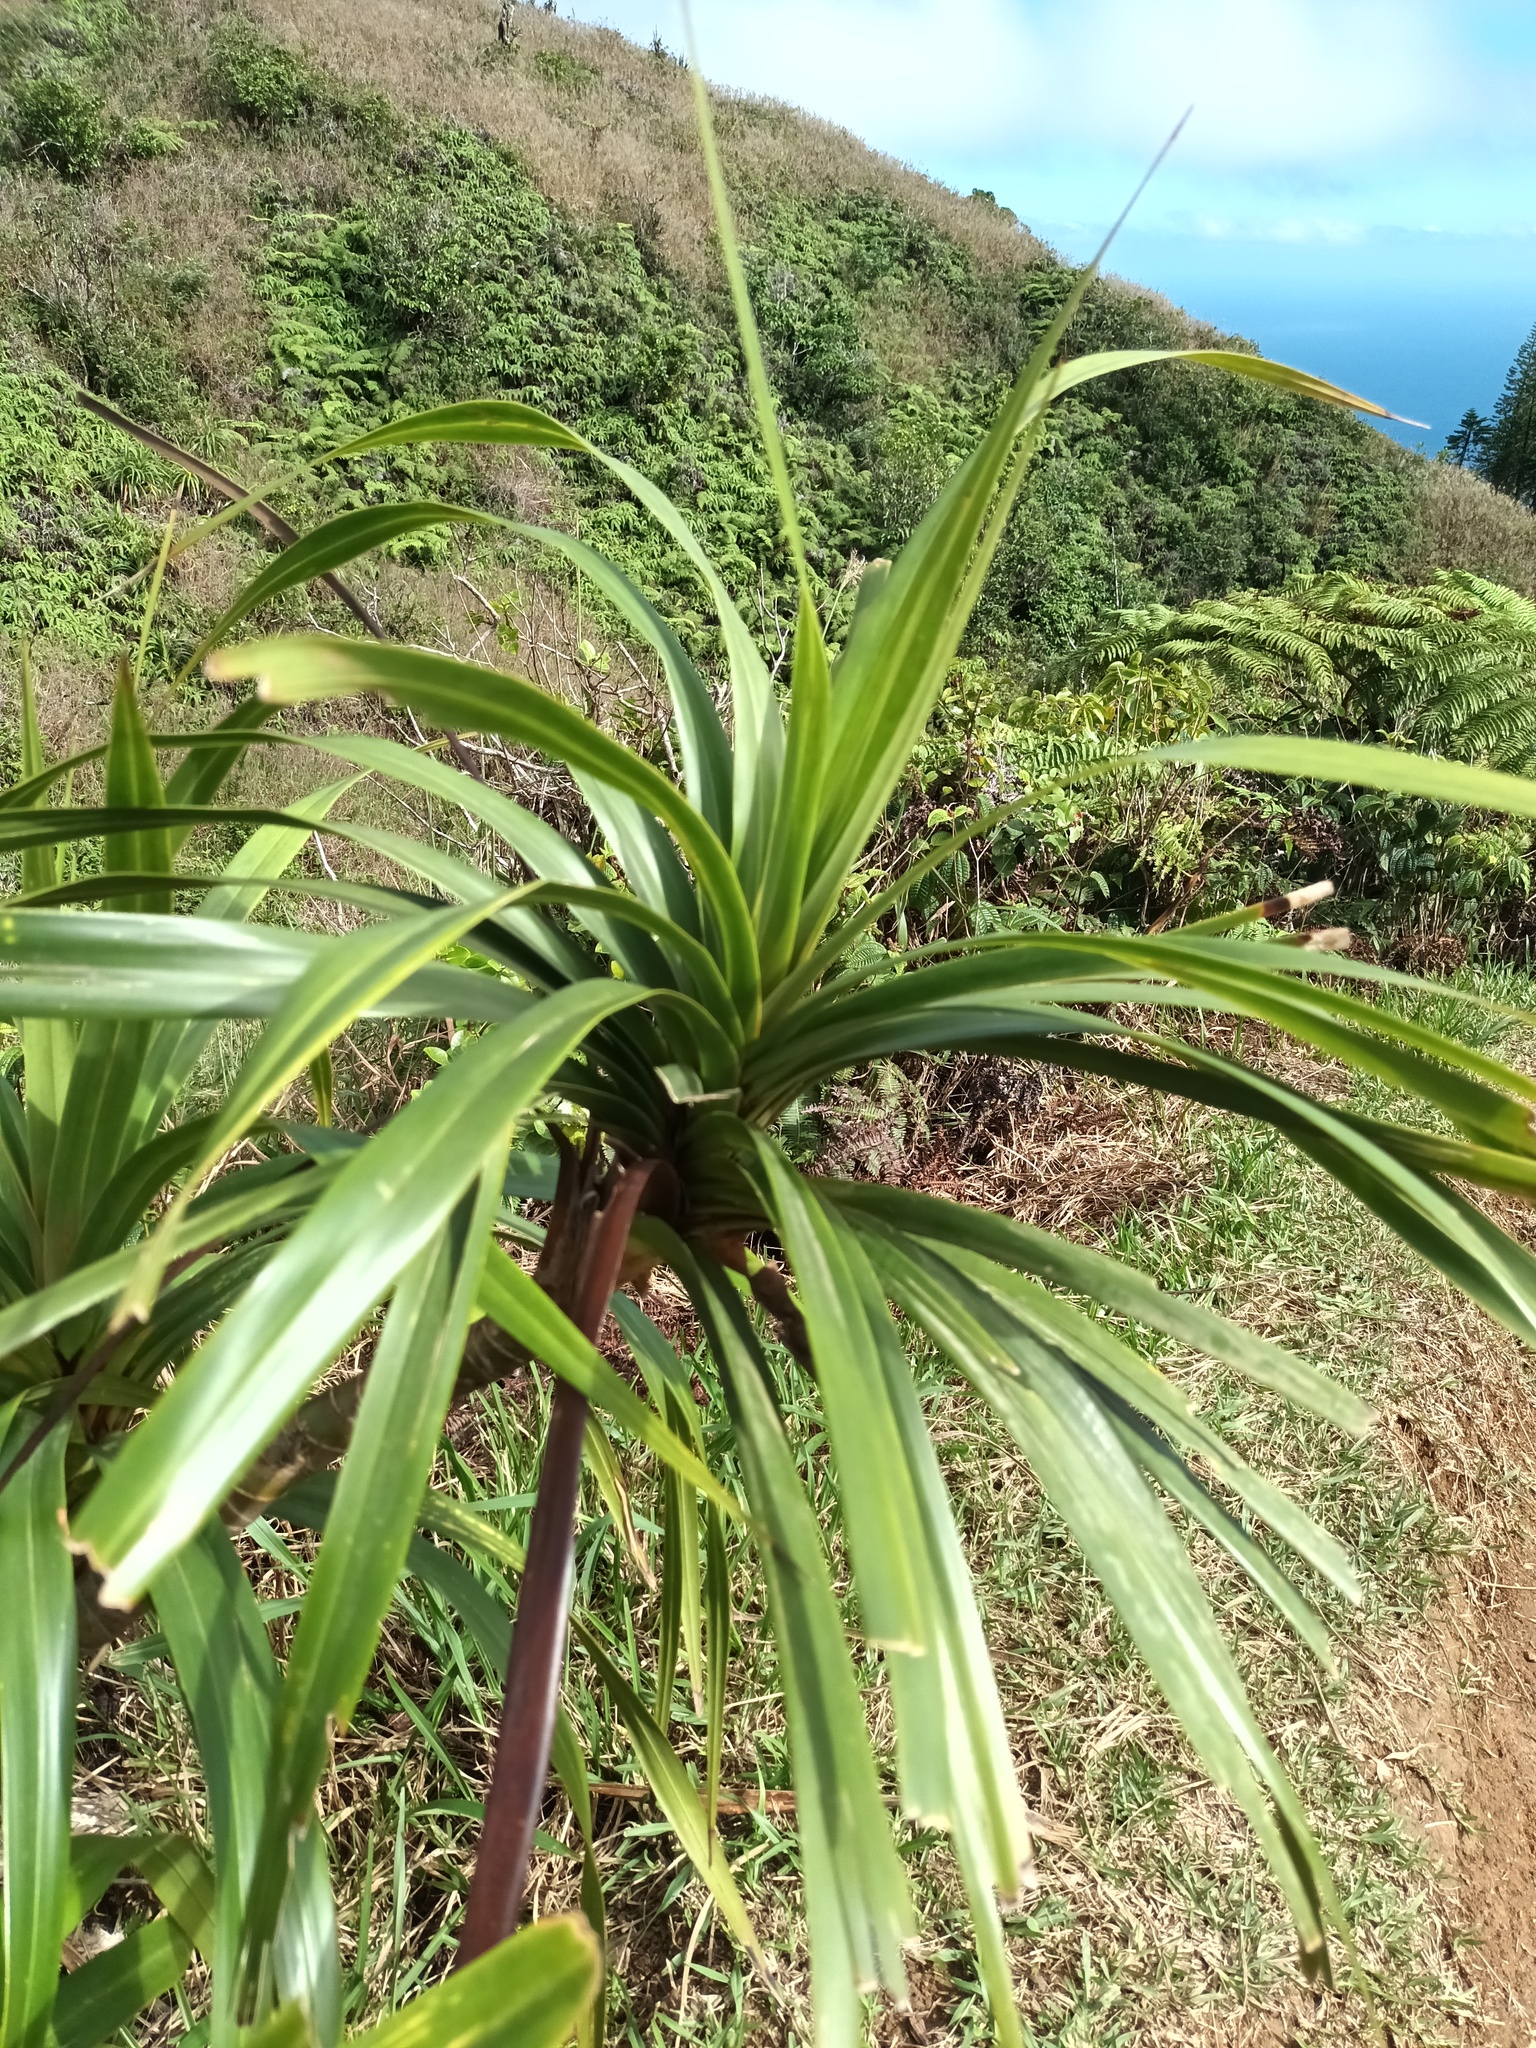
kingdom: Plantae
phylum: Tracheophyta
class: Liliopsida
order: Pandanales
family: Pandanaceae
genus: Freycinetia
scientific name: Freycinetia arborea
